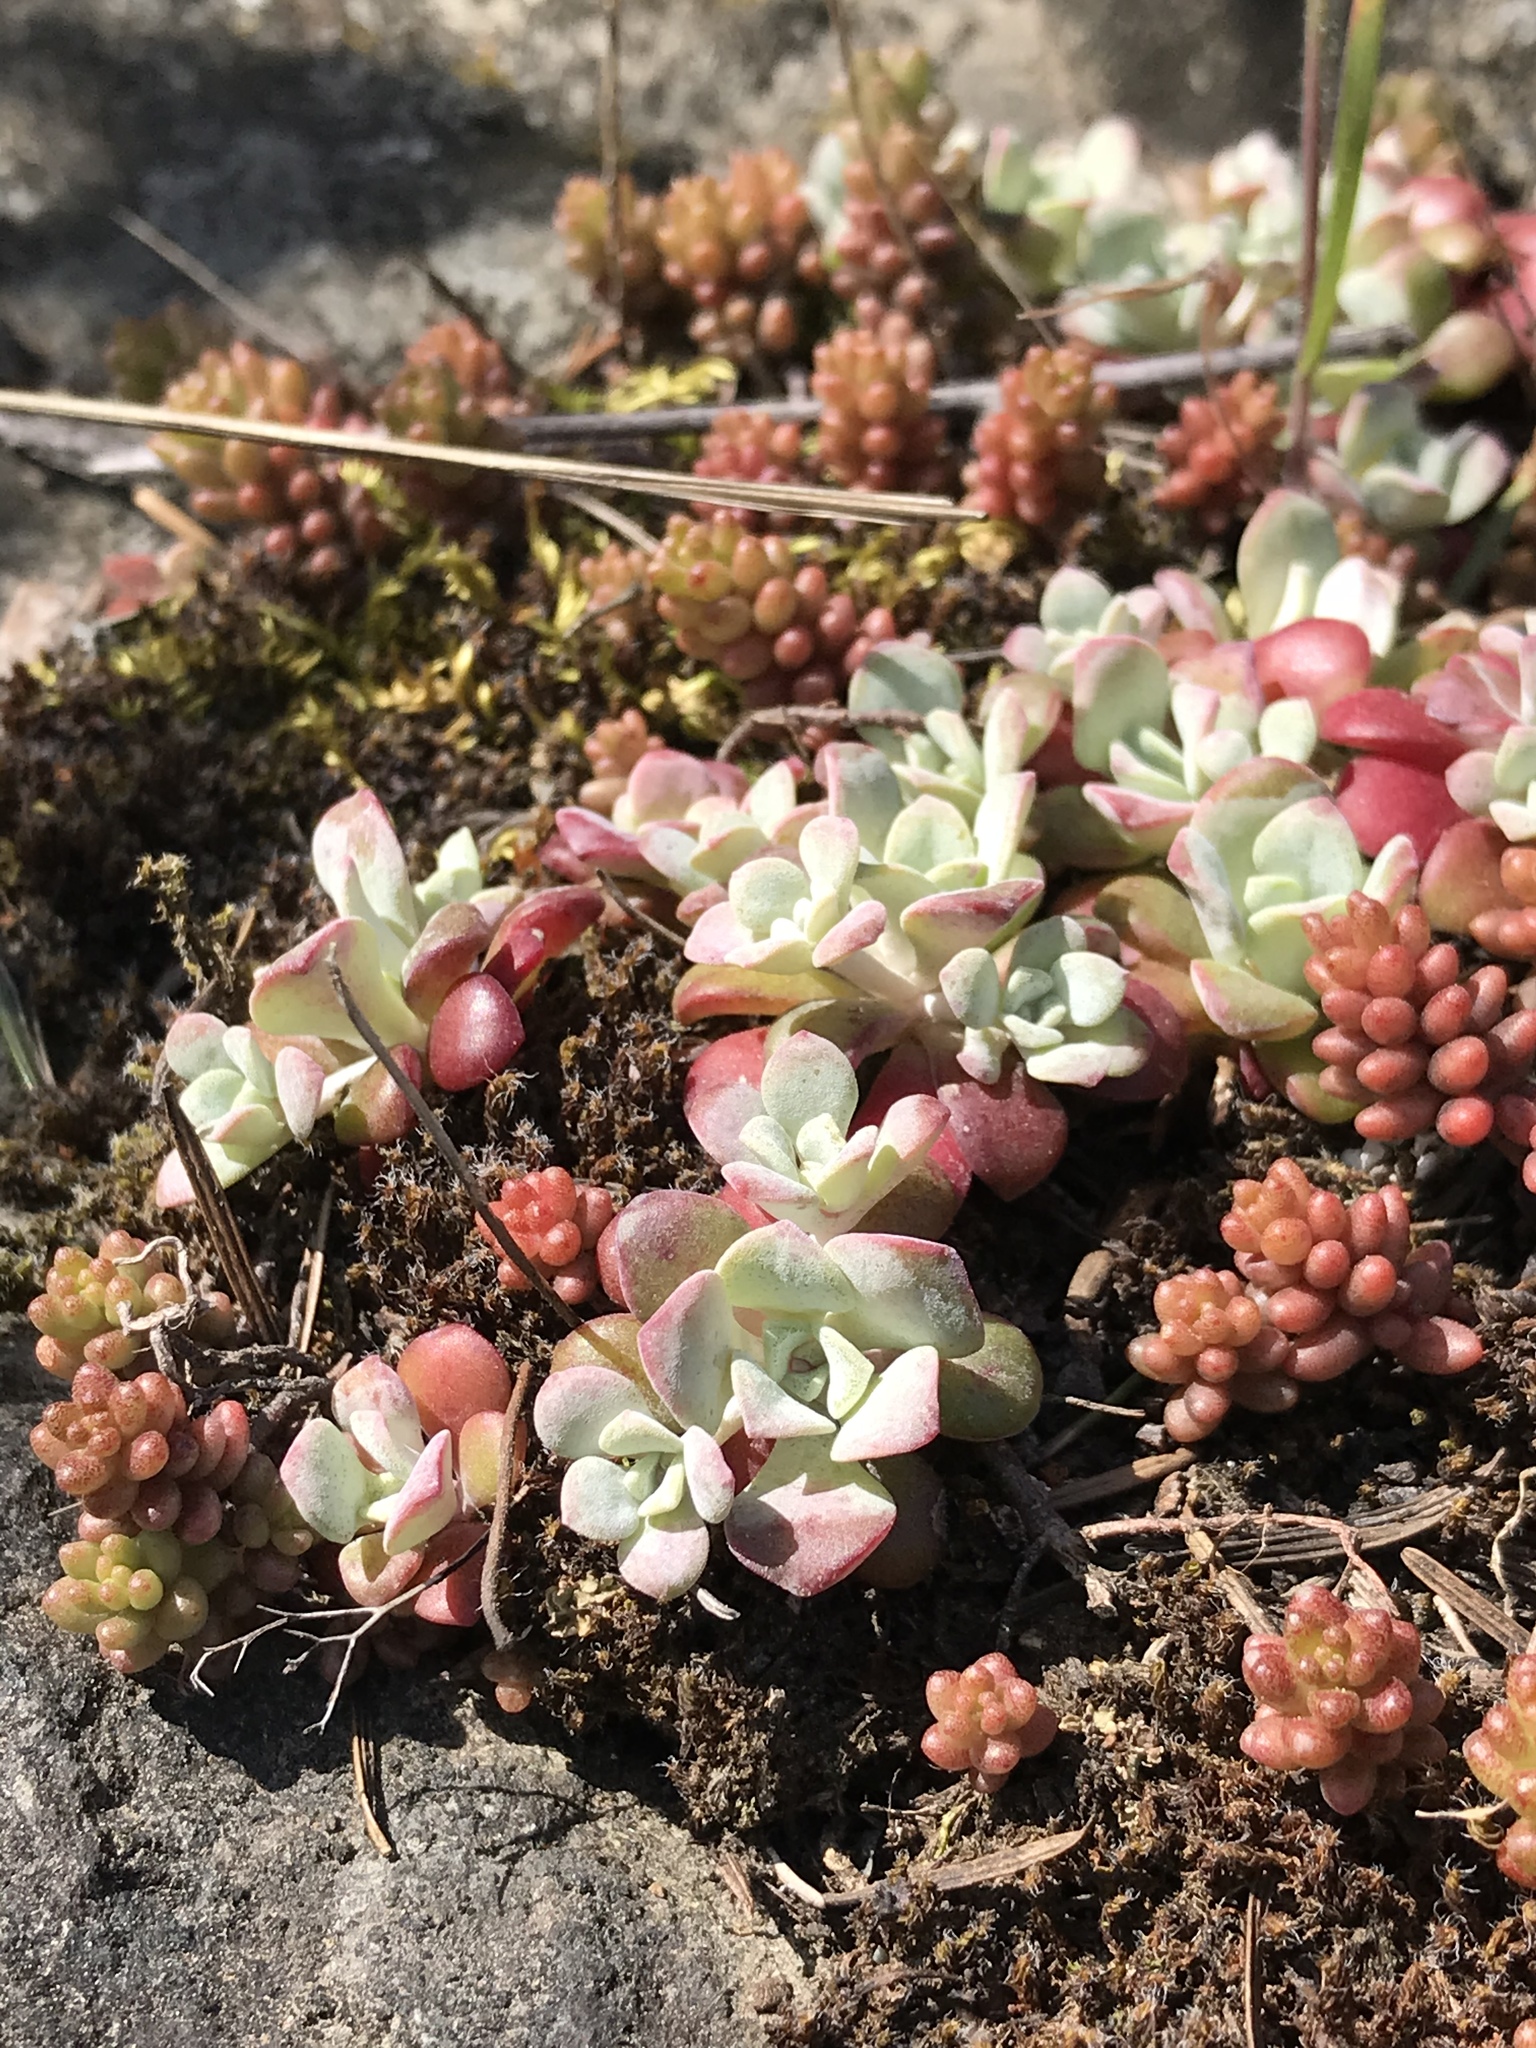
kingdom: Plantae
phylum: Tracheophyta
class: Magnoliopsida
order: Saxifragales
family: Crassulaceae
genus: Sedum
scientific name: Sedum spathulifolium
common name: Colorado stonecrop
